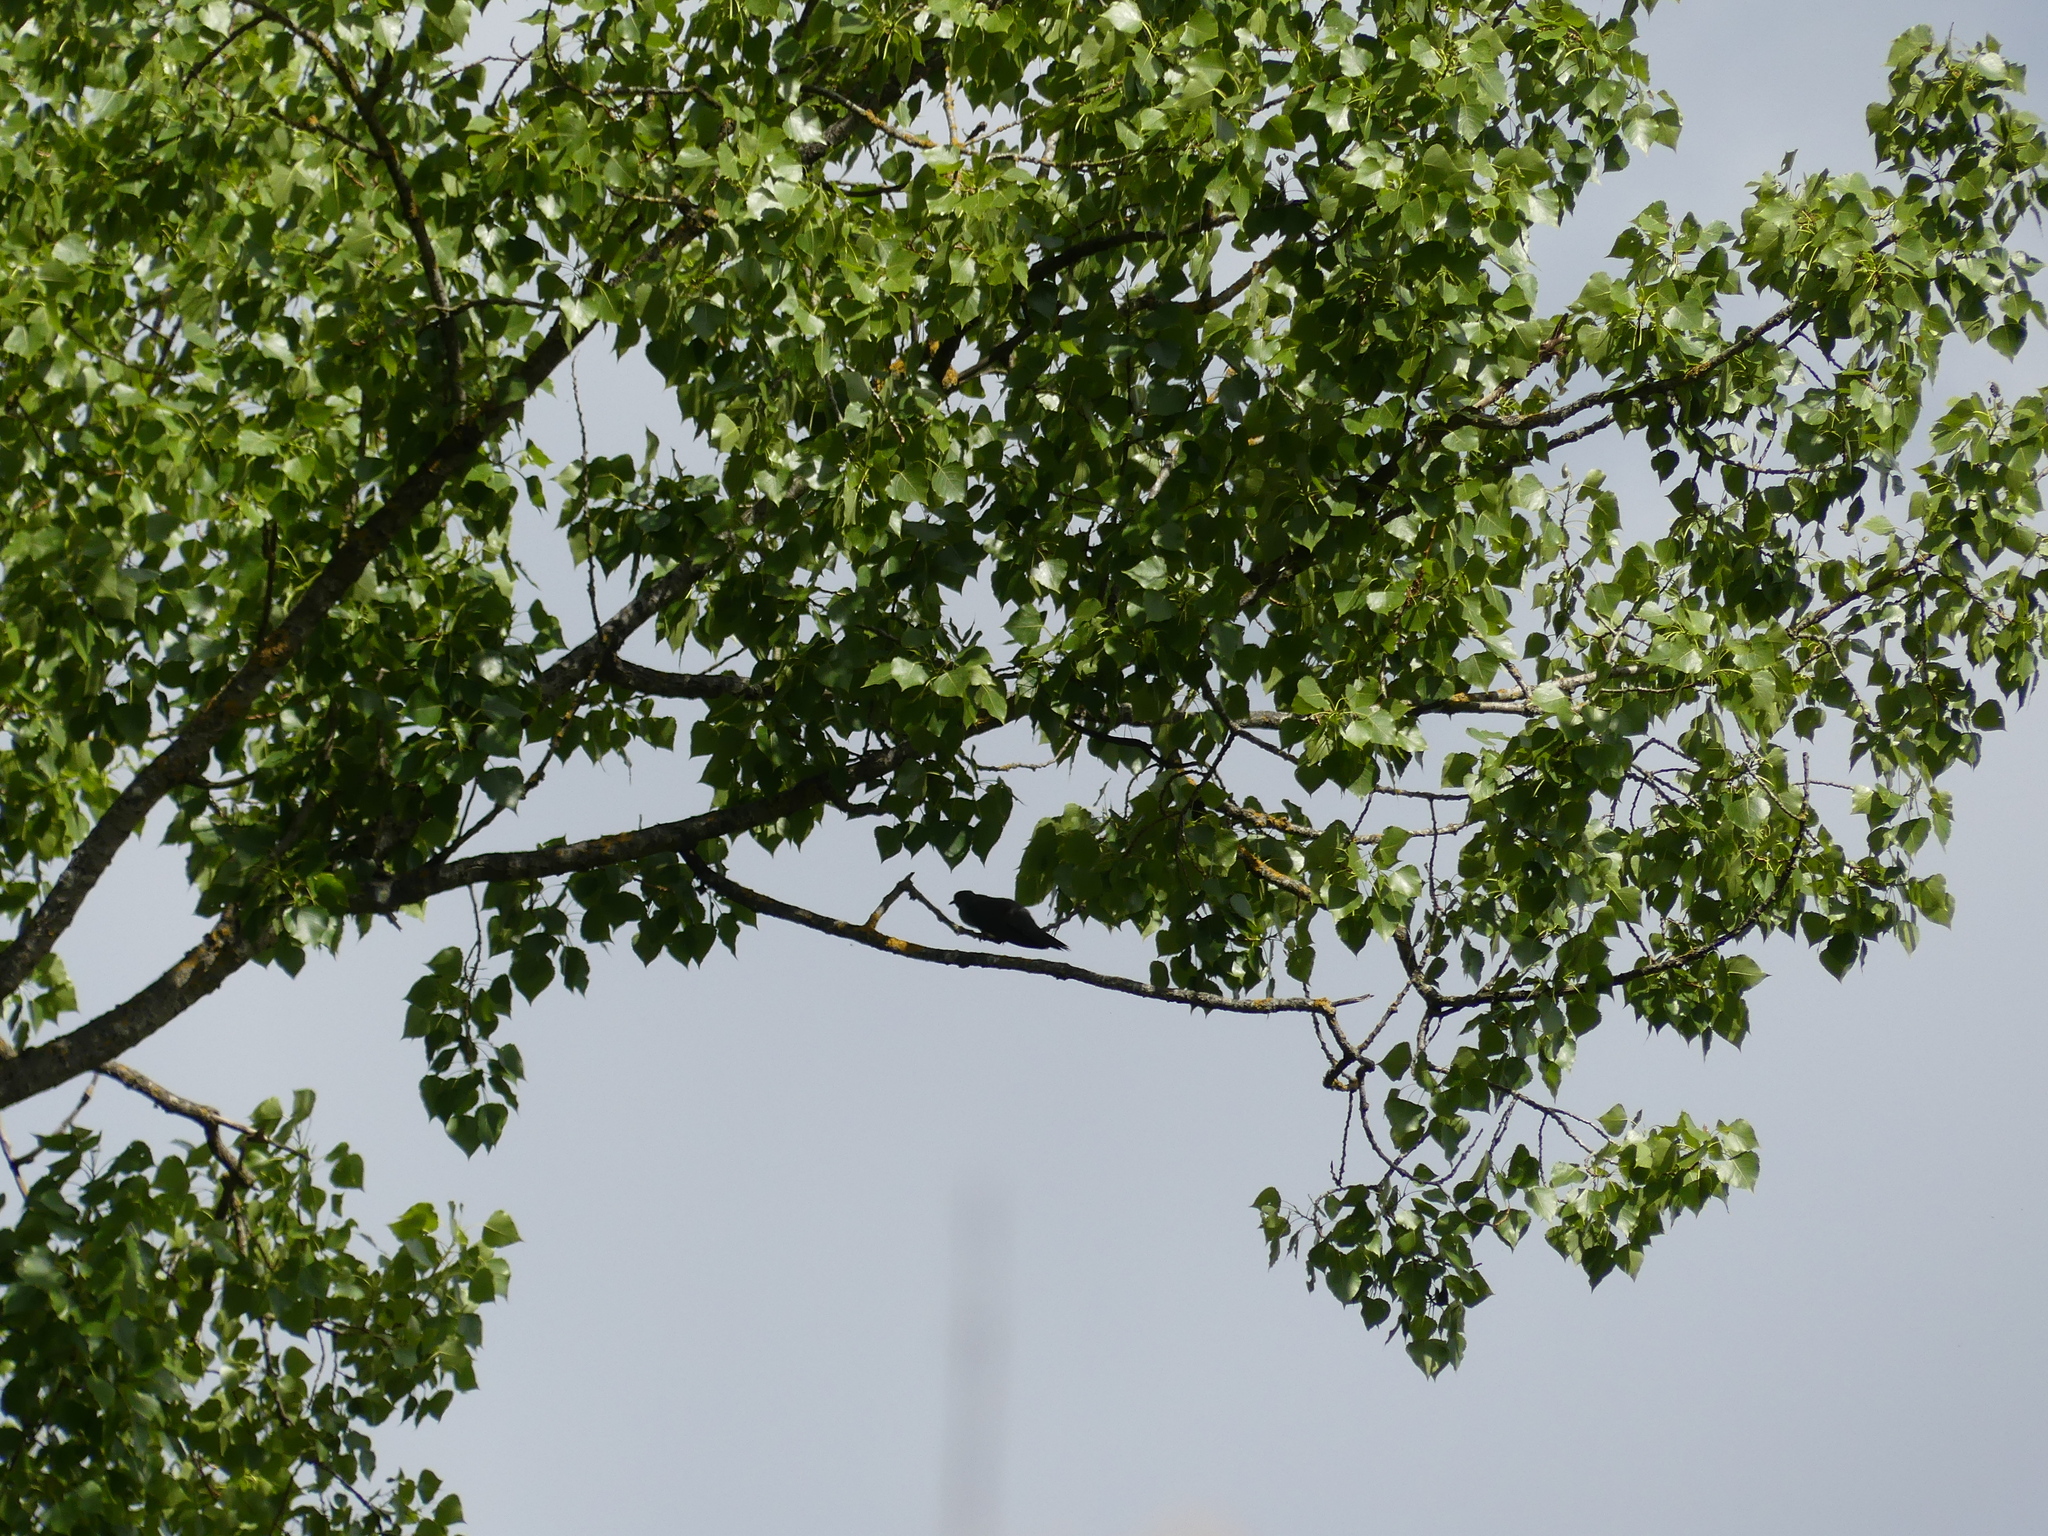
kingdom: Animalia
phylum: Chordata
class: Aves
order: Cuculiformes
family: Cuculidae
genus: Cuculus
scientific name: Cuculus canorus
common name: Common cuckoo
